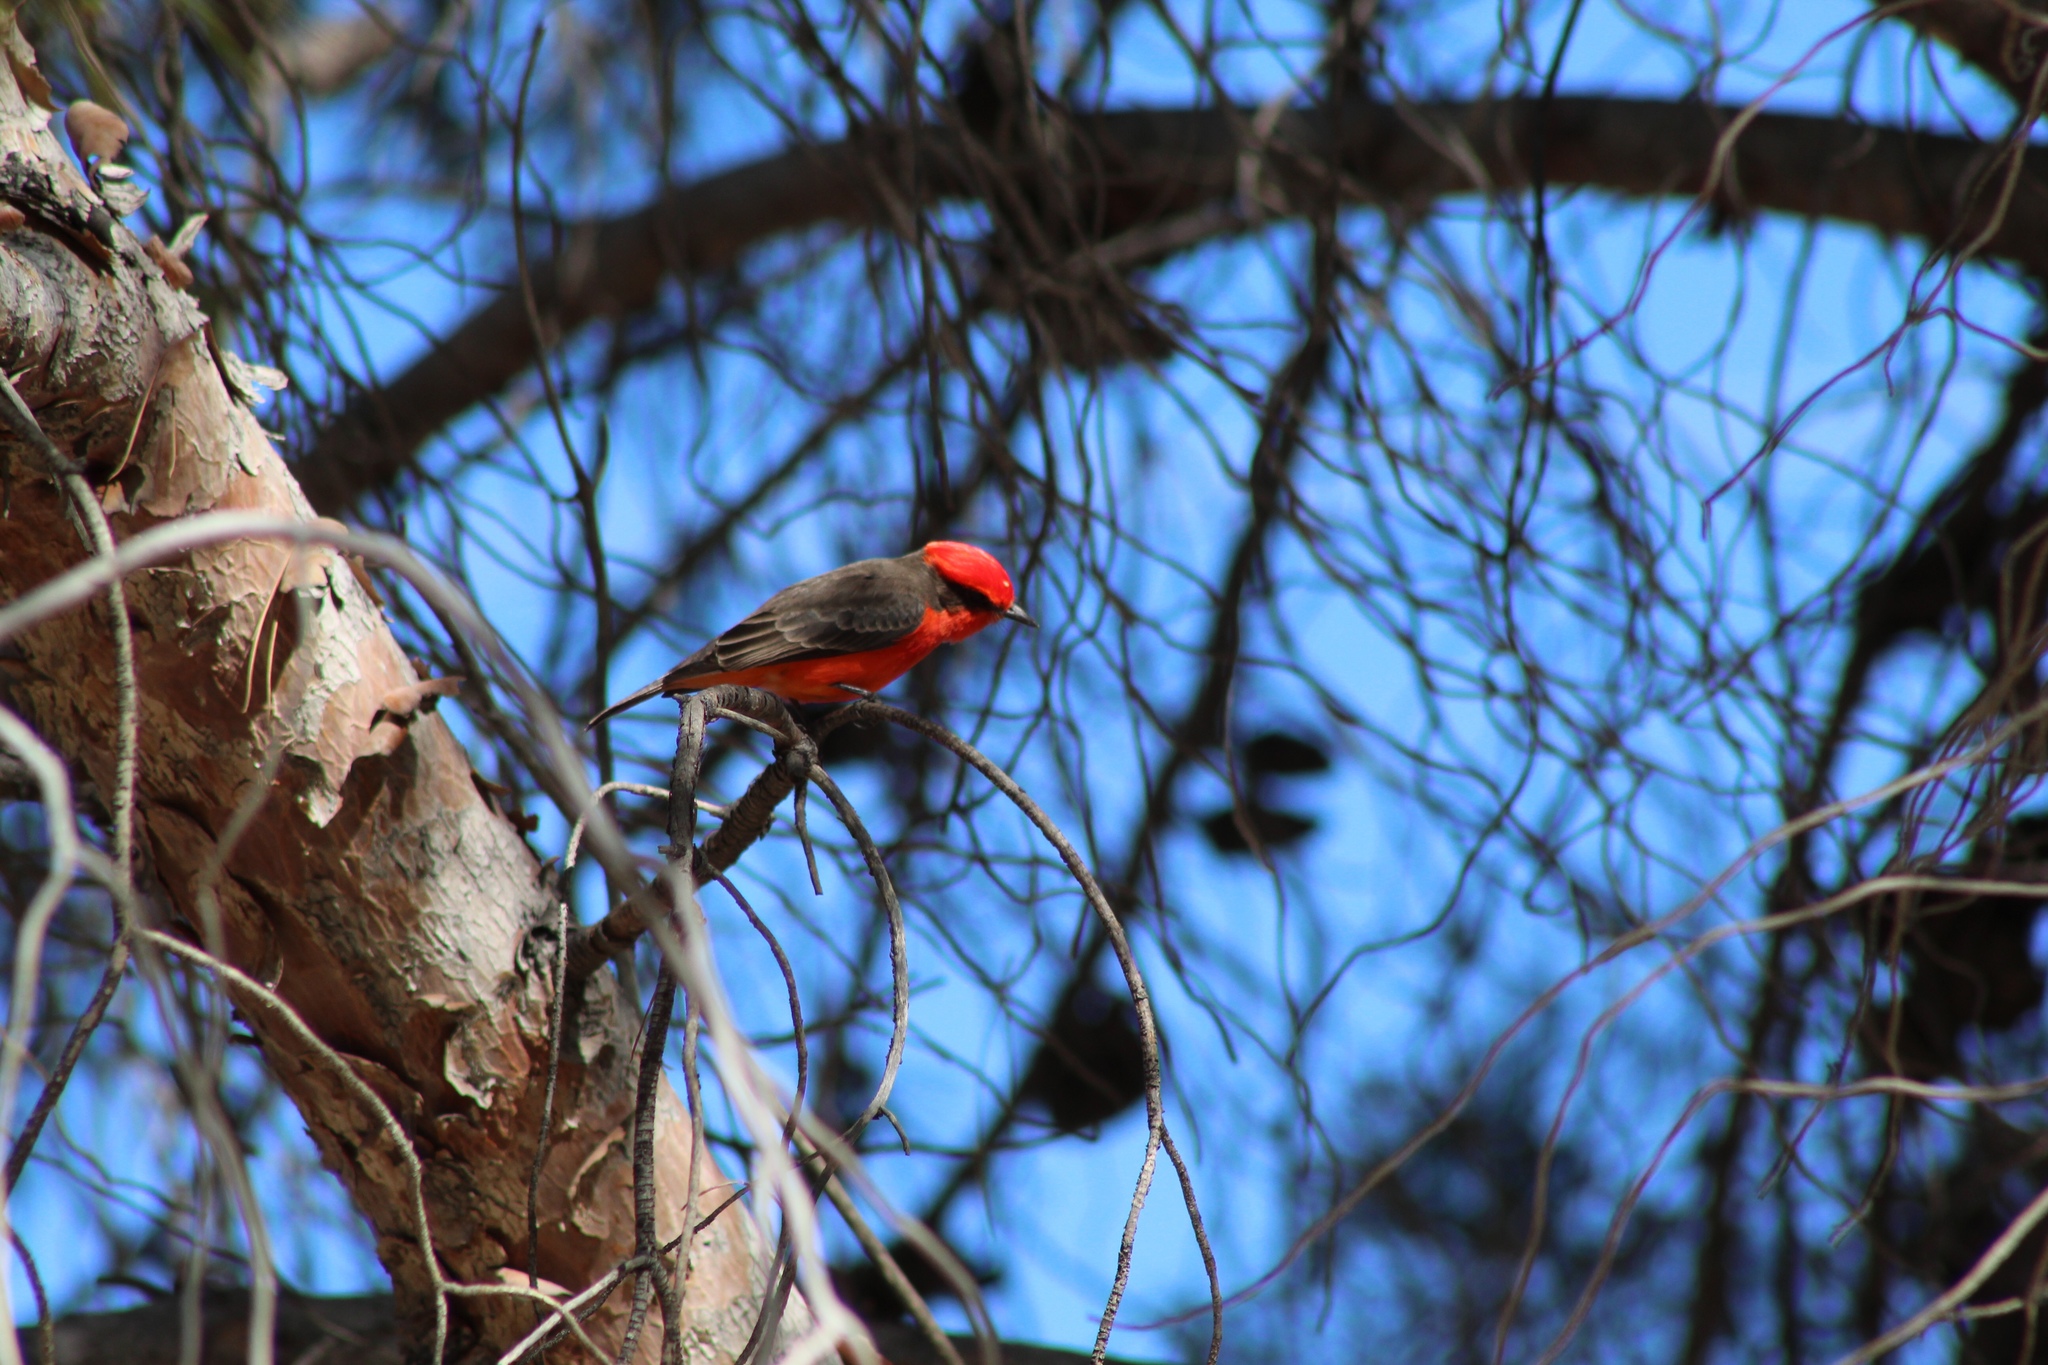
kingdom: Animalia
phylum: Chordata
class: Aves
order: Passeriformes
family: Tyrannidae
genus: Pyrocephalus
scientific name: Pyrocephalus rubinus
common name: Vermilion flycatcher
